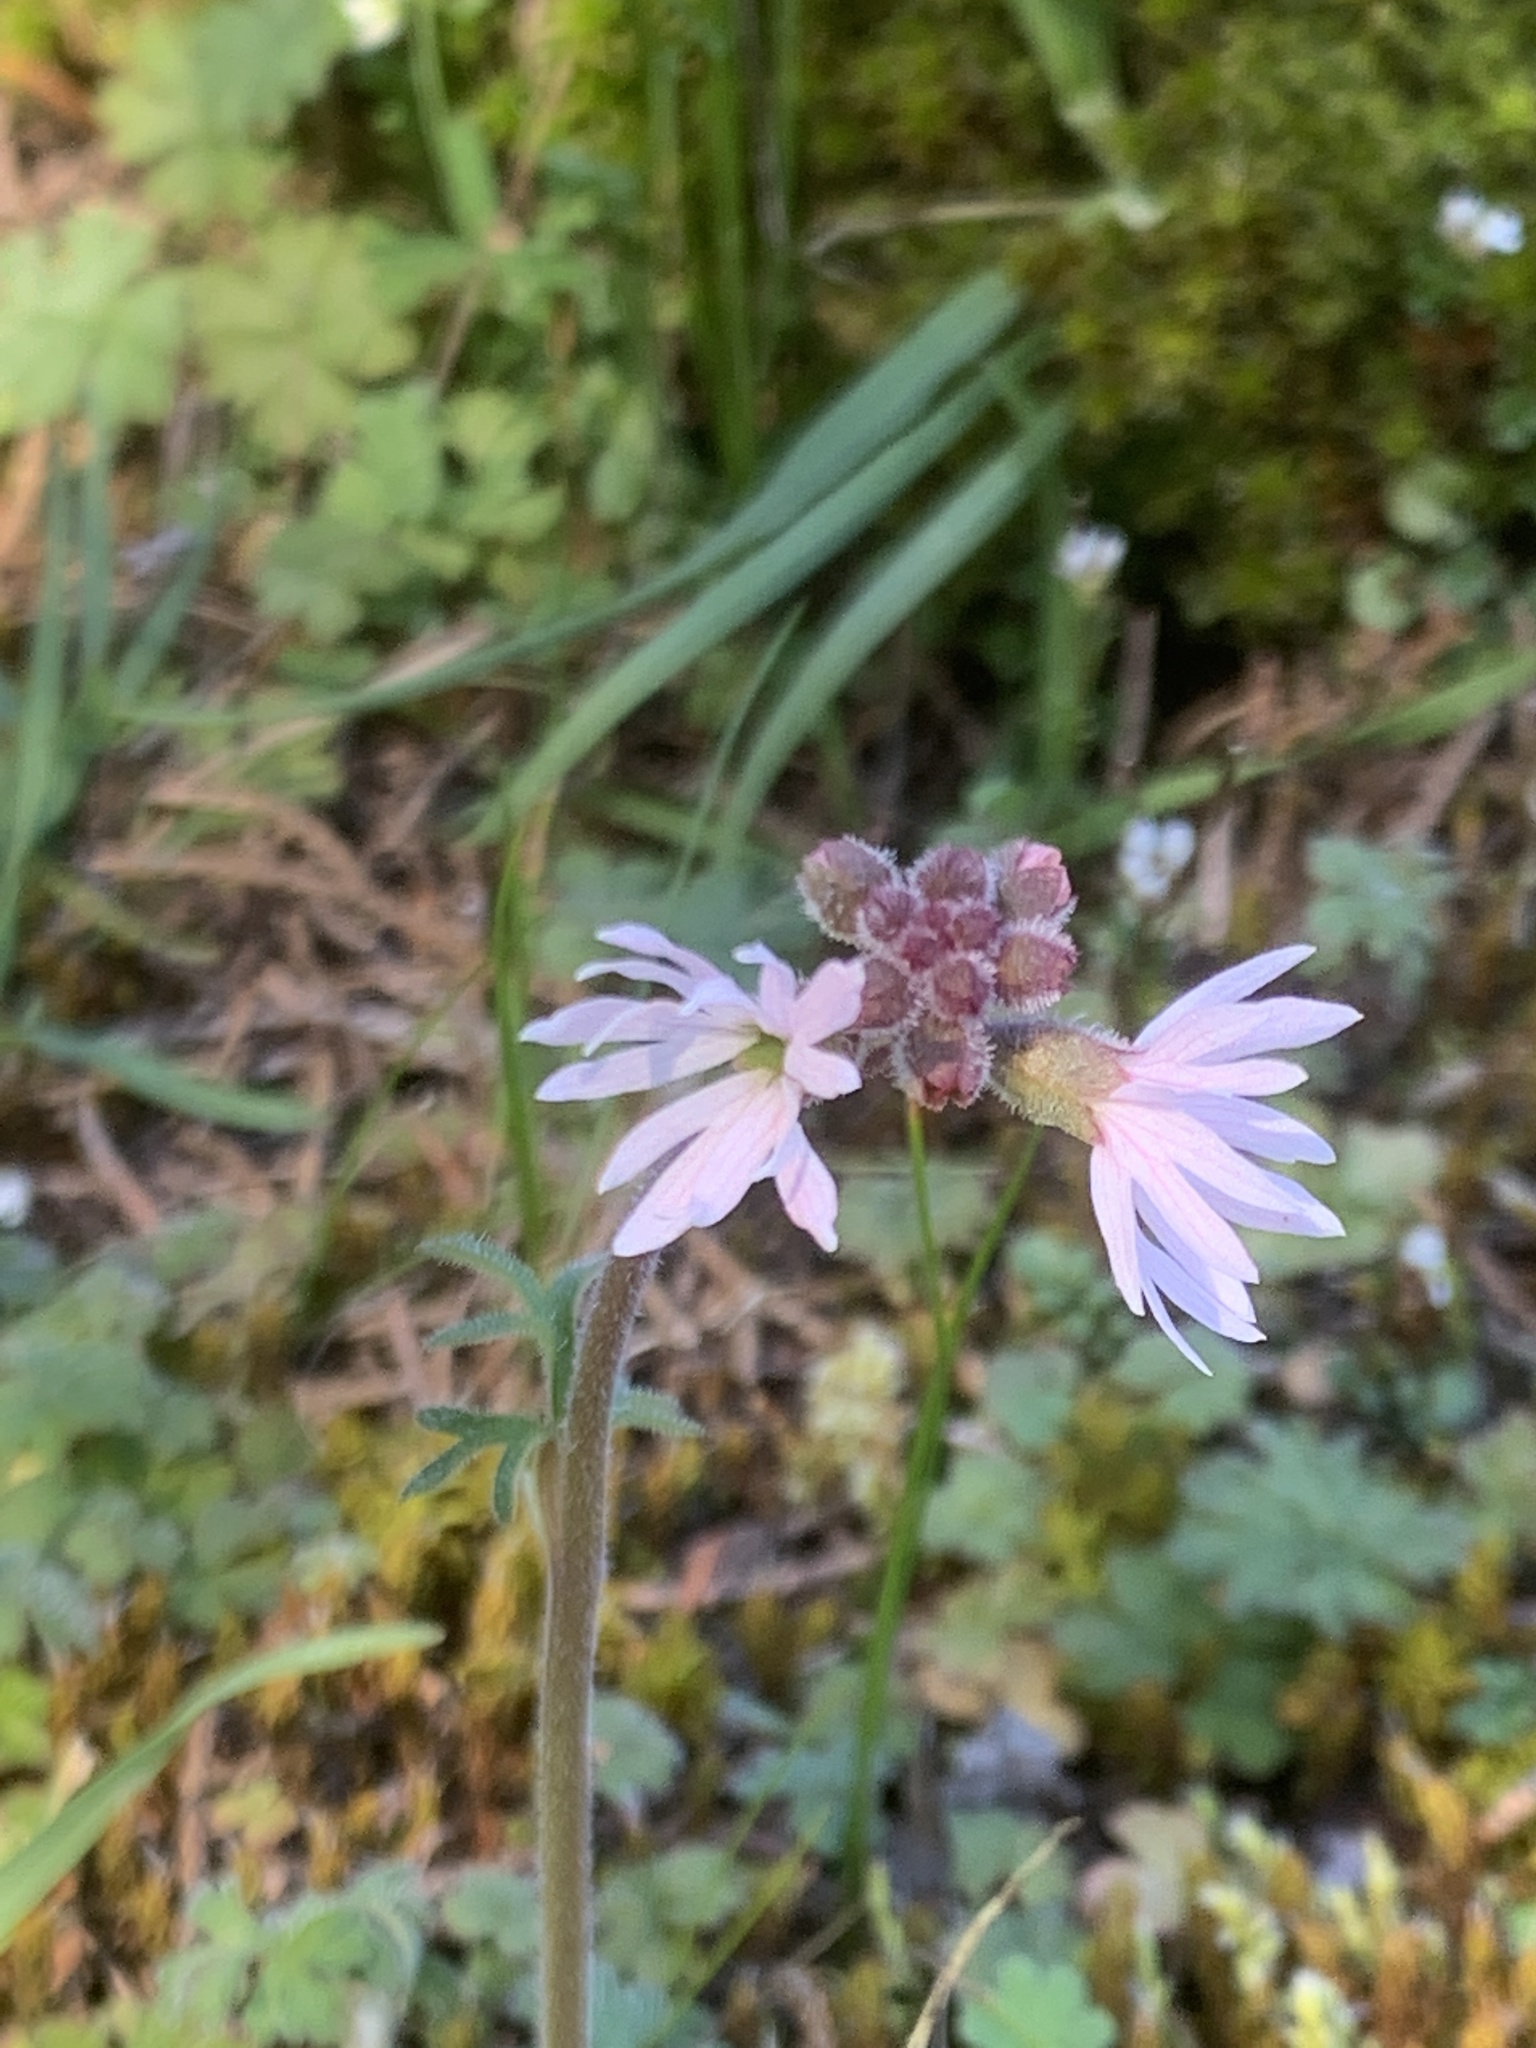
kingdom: Plantae
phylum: Tracheophyta
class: Magnoliopsida
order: Saxifragales
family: Saxifragaceae
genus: Lithophragma
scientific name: Lithophragma parviflorum
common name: Small-flowered fringe-cup
